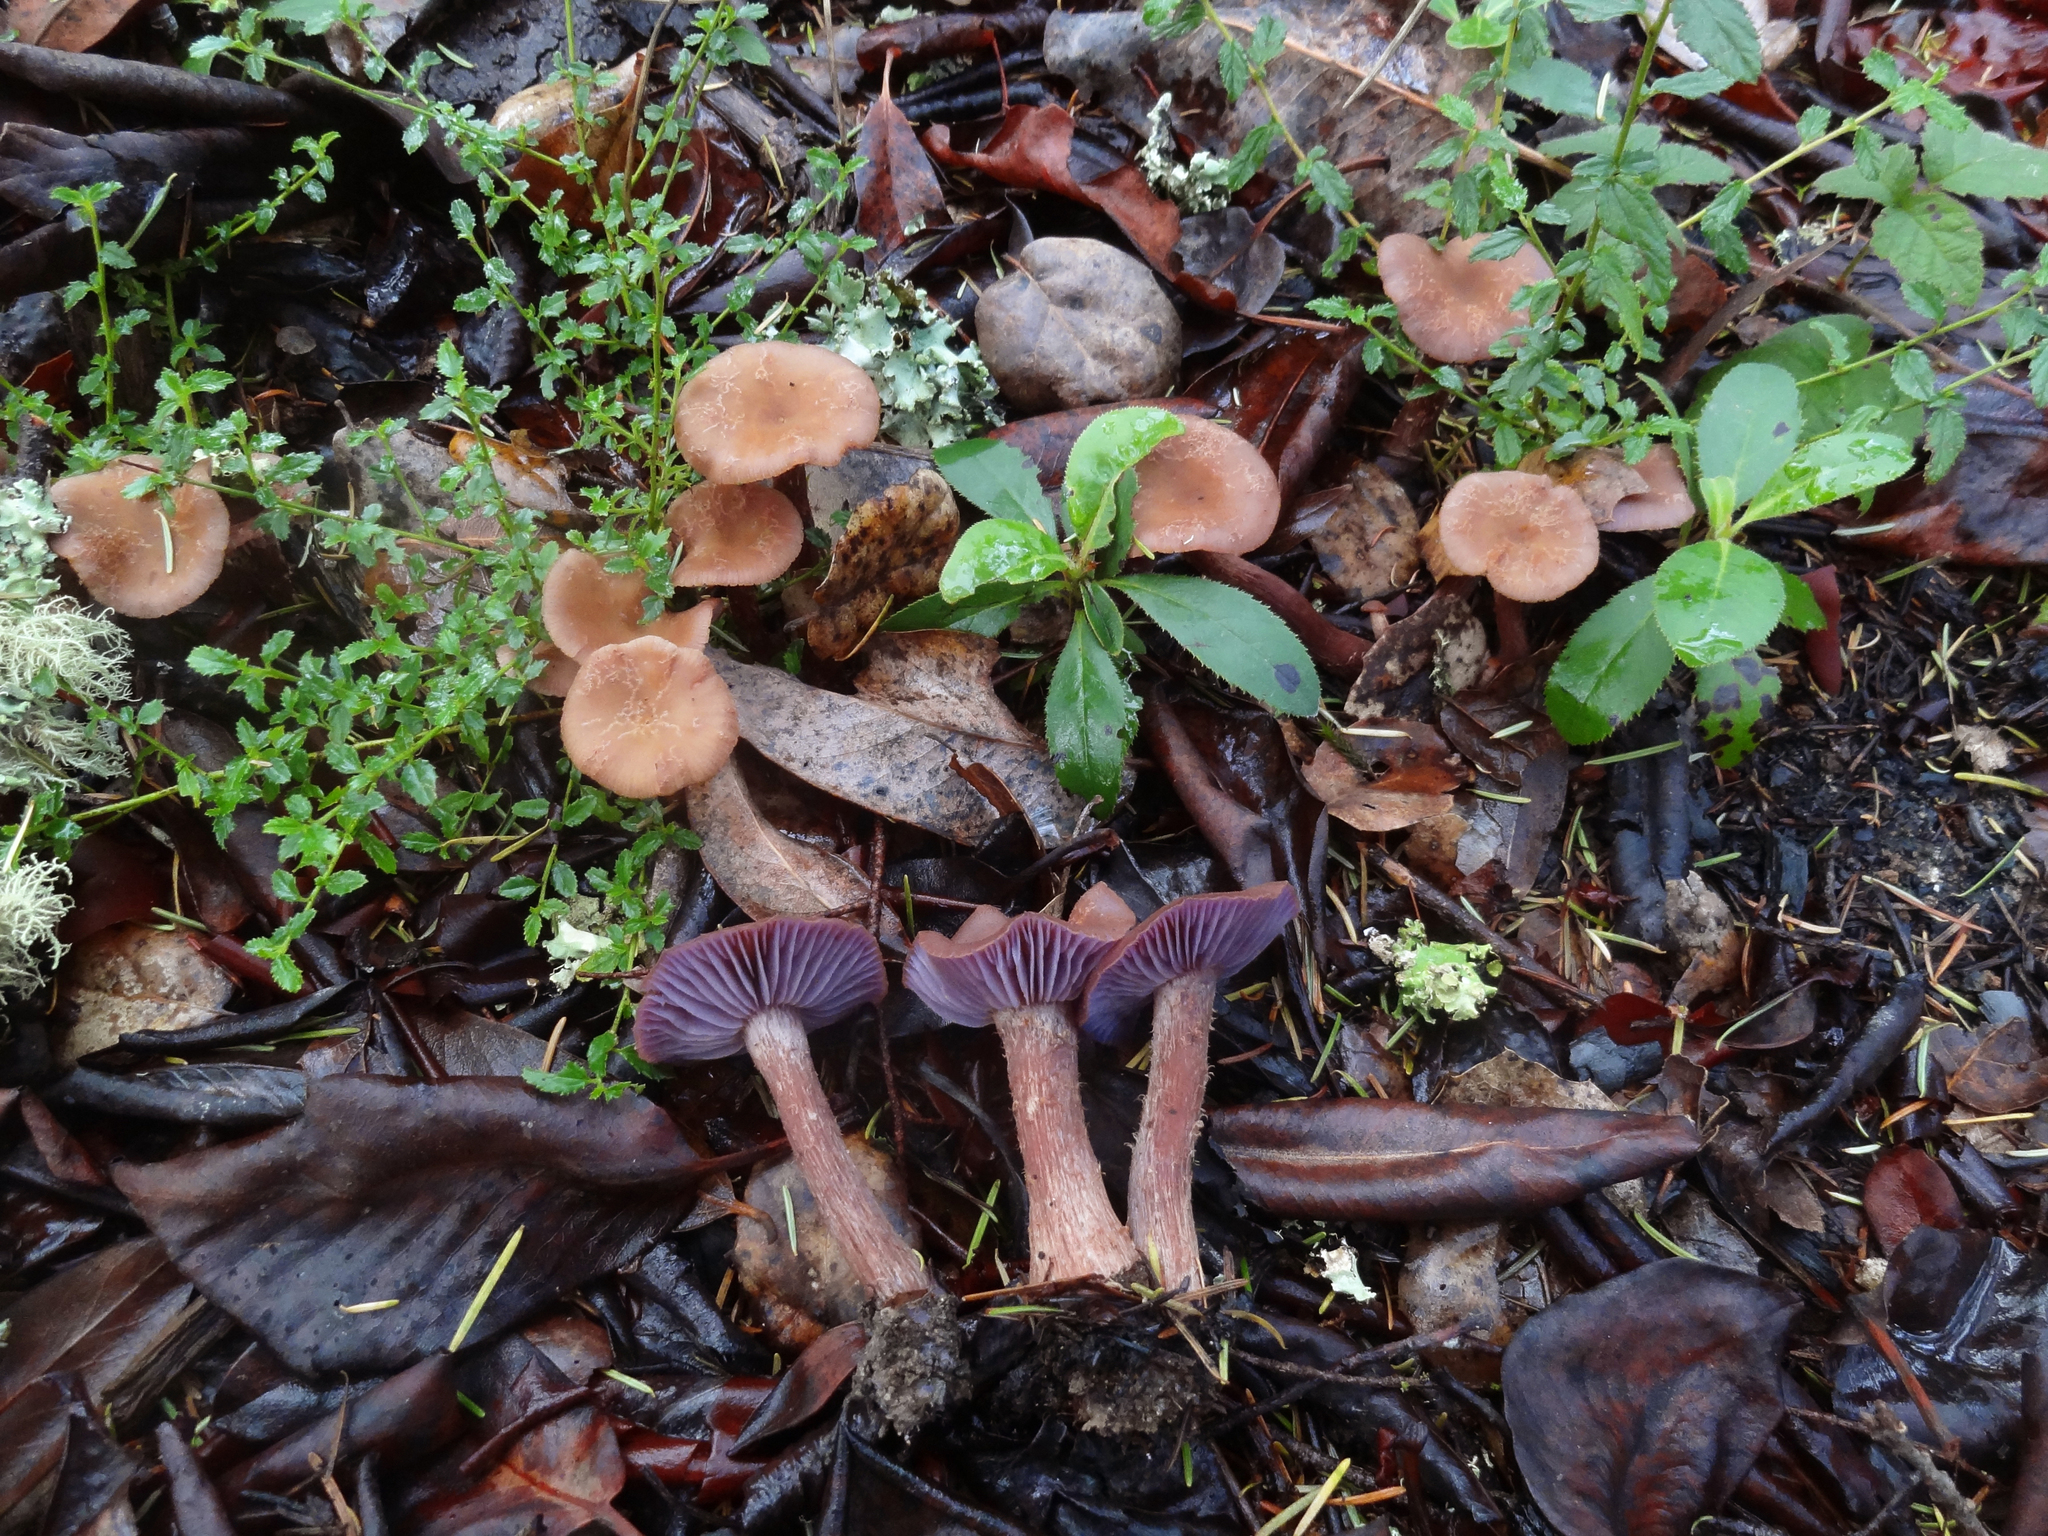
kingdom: Fungi
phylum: Basidiomycota
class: Agaricomycetes
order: Agaricales
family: Hydnangiaceae
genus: Laccaria
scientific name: Laccaria amethysteo-occidentalis
